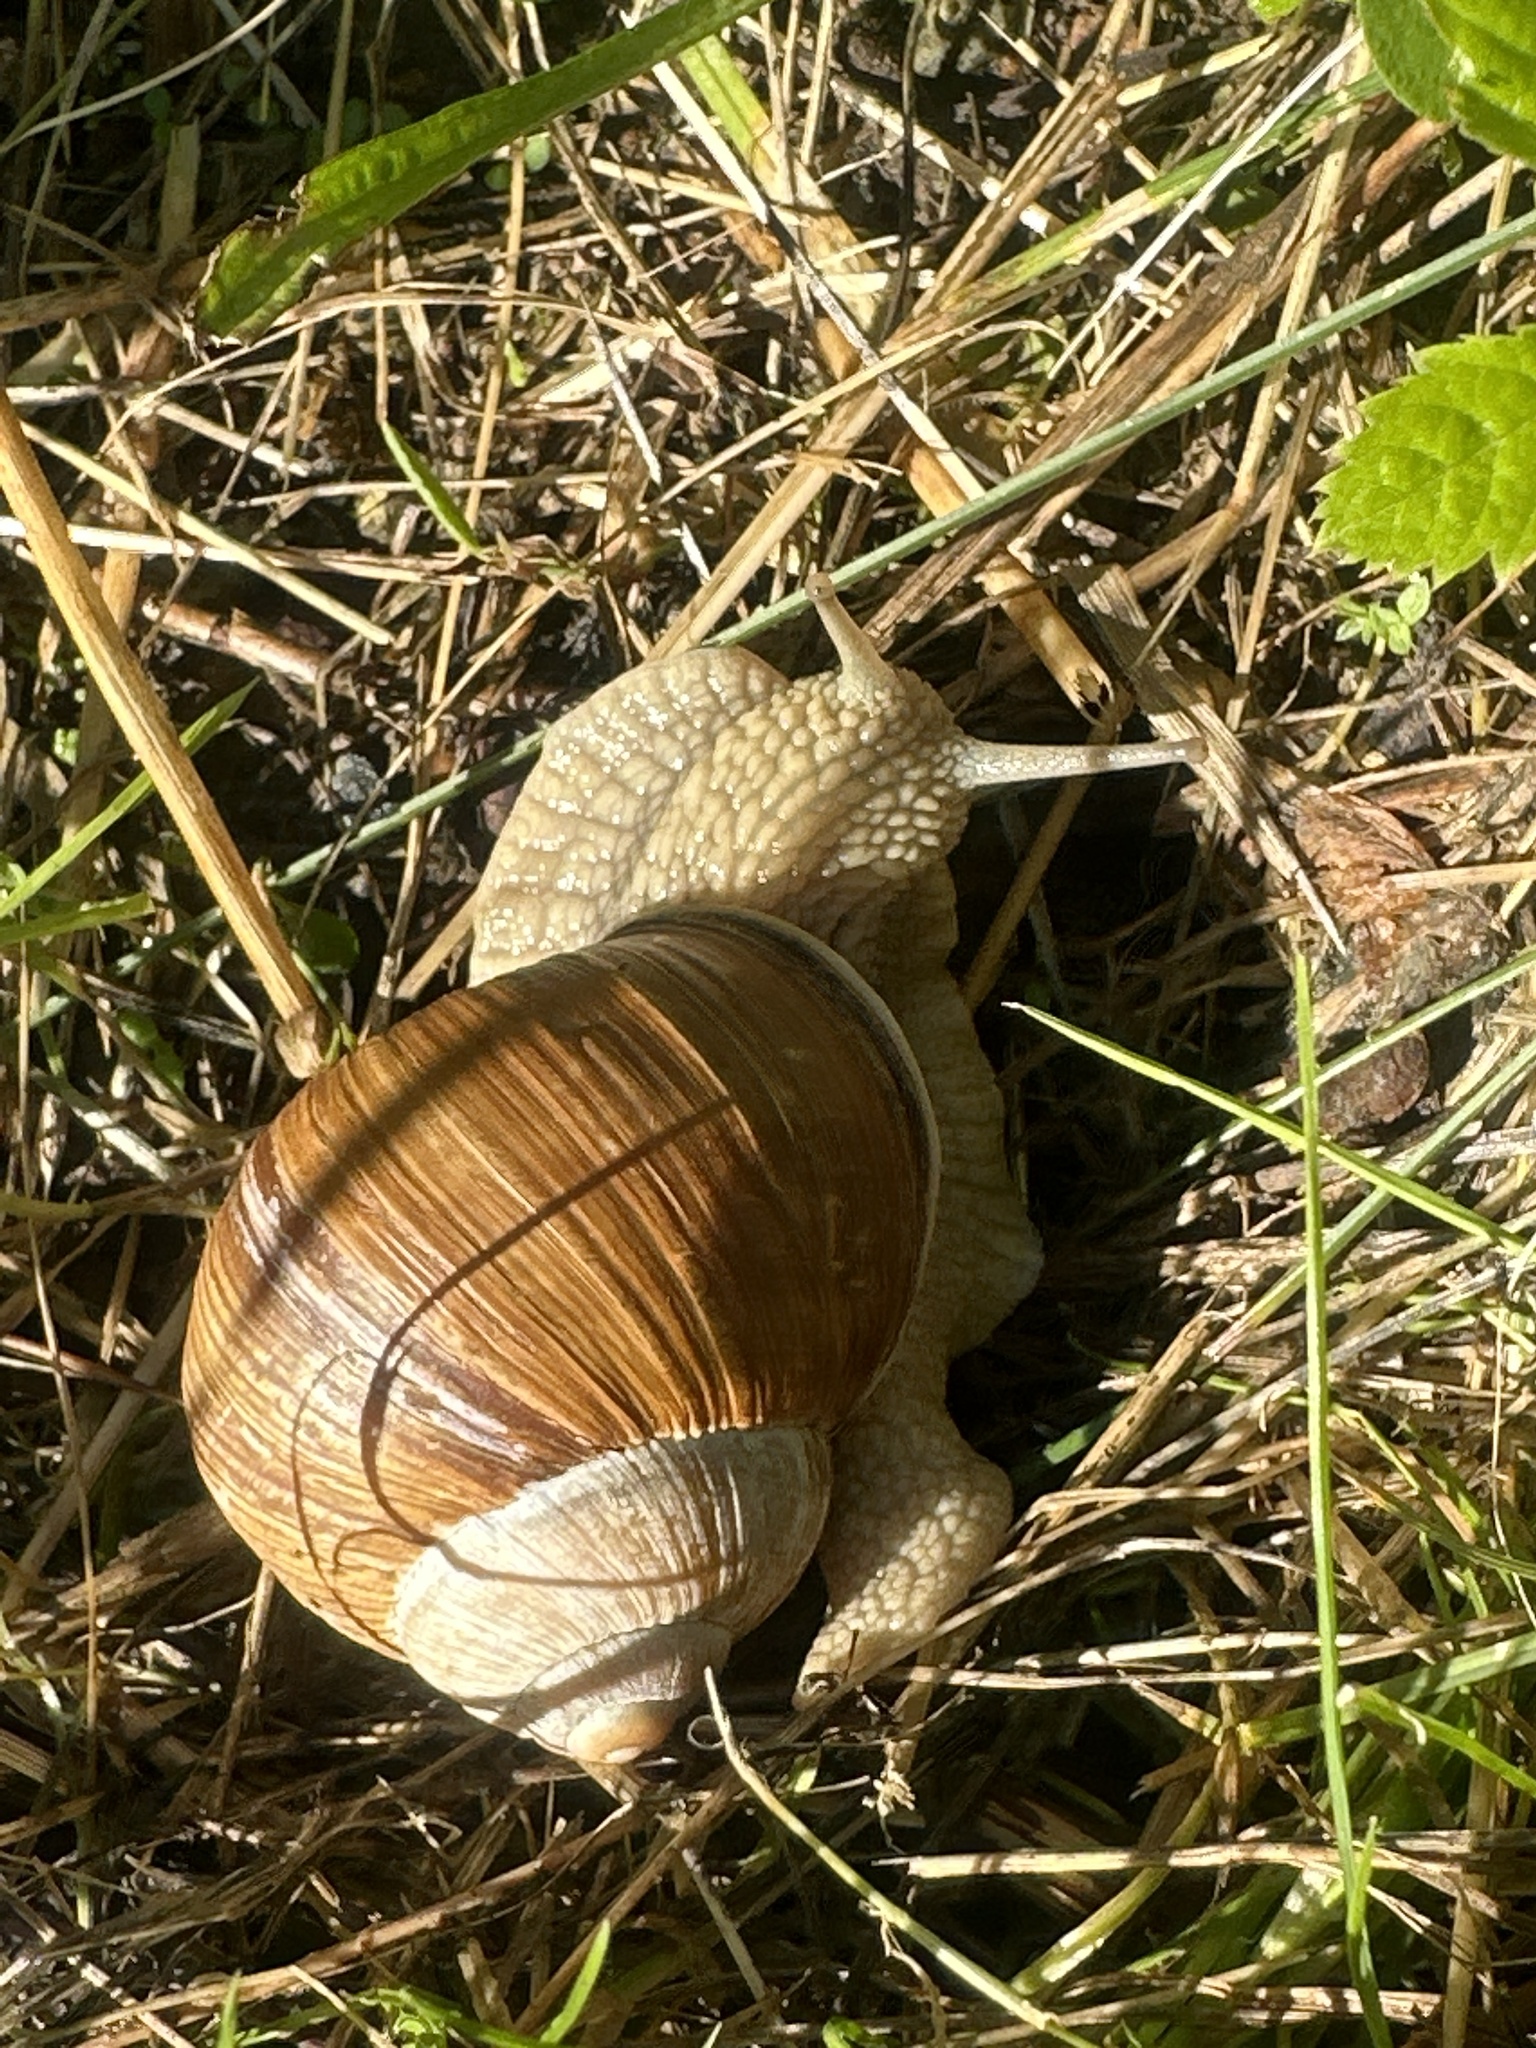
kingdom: Animalia
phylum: Mollusca
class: Gastropoda
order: Stylommatophora
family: Helicidae
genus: Helix
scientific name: Helix pomatia
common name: Roman snail
